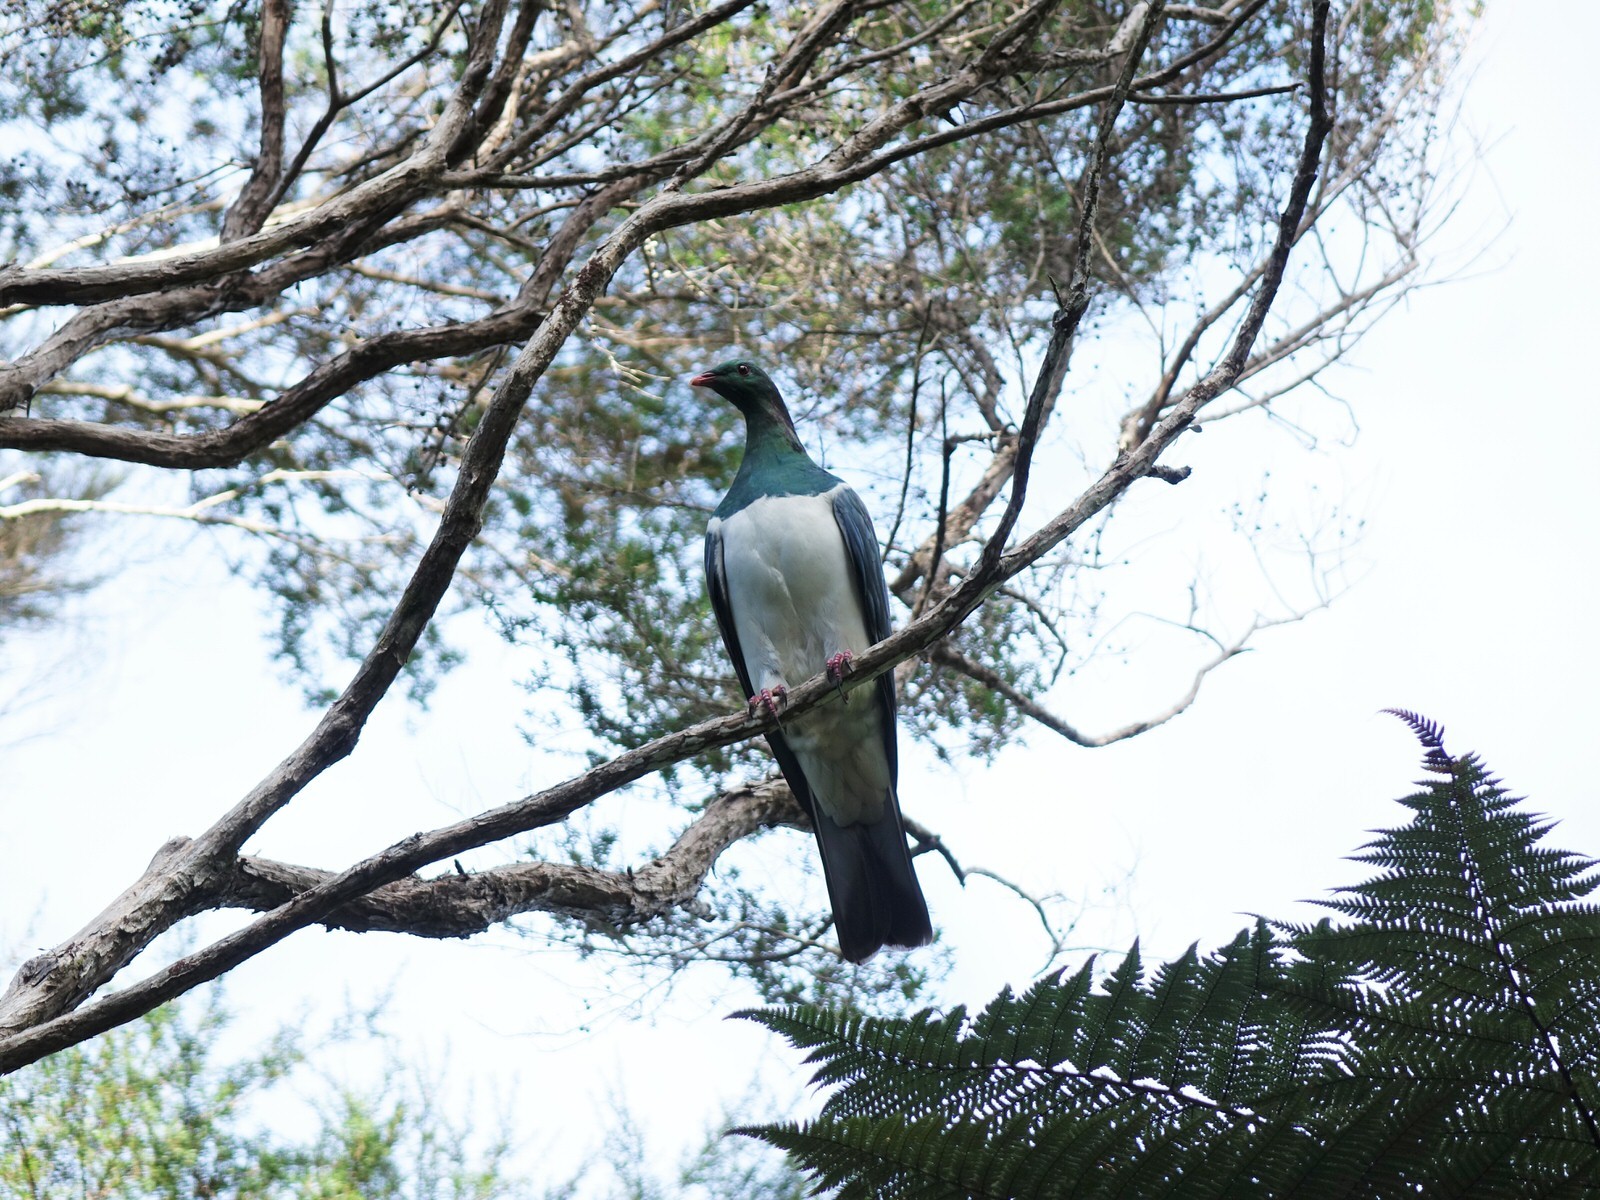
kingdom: Animalia
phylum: Chordata
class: Aves
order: Columbiformes
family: Columbidae
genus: Hemiphaga
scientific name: Hemiphaga novaeseelandiae
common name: New zealand pigeon
